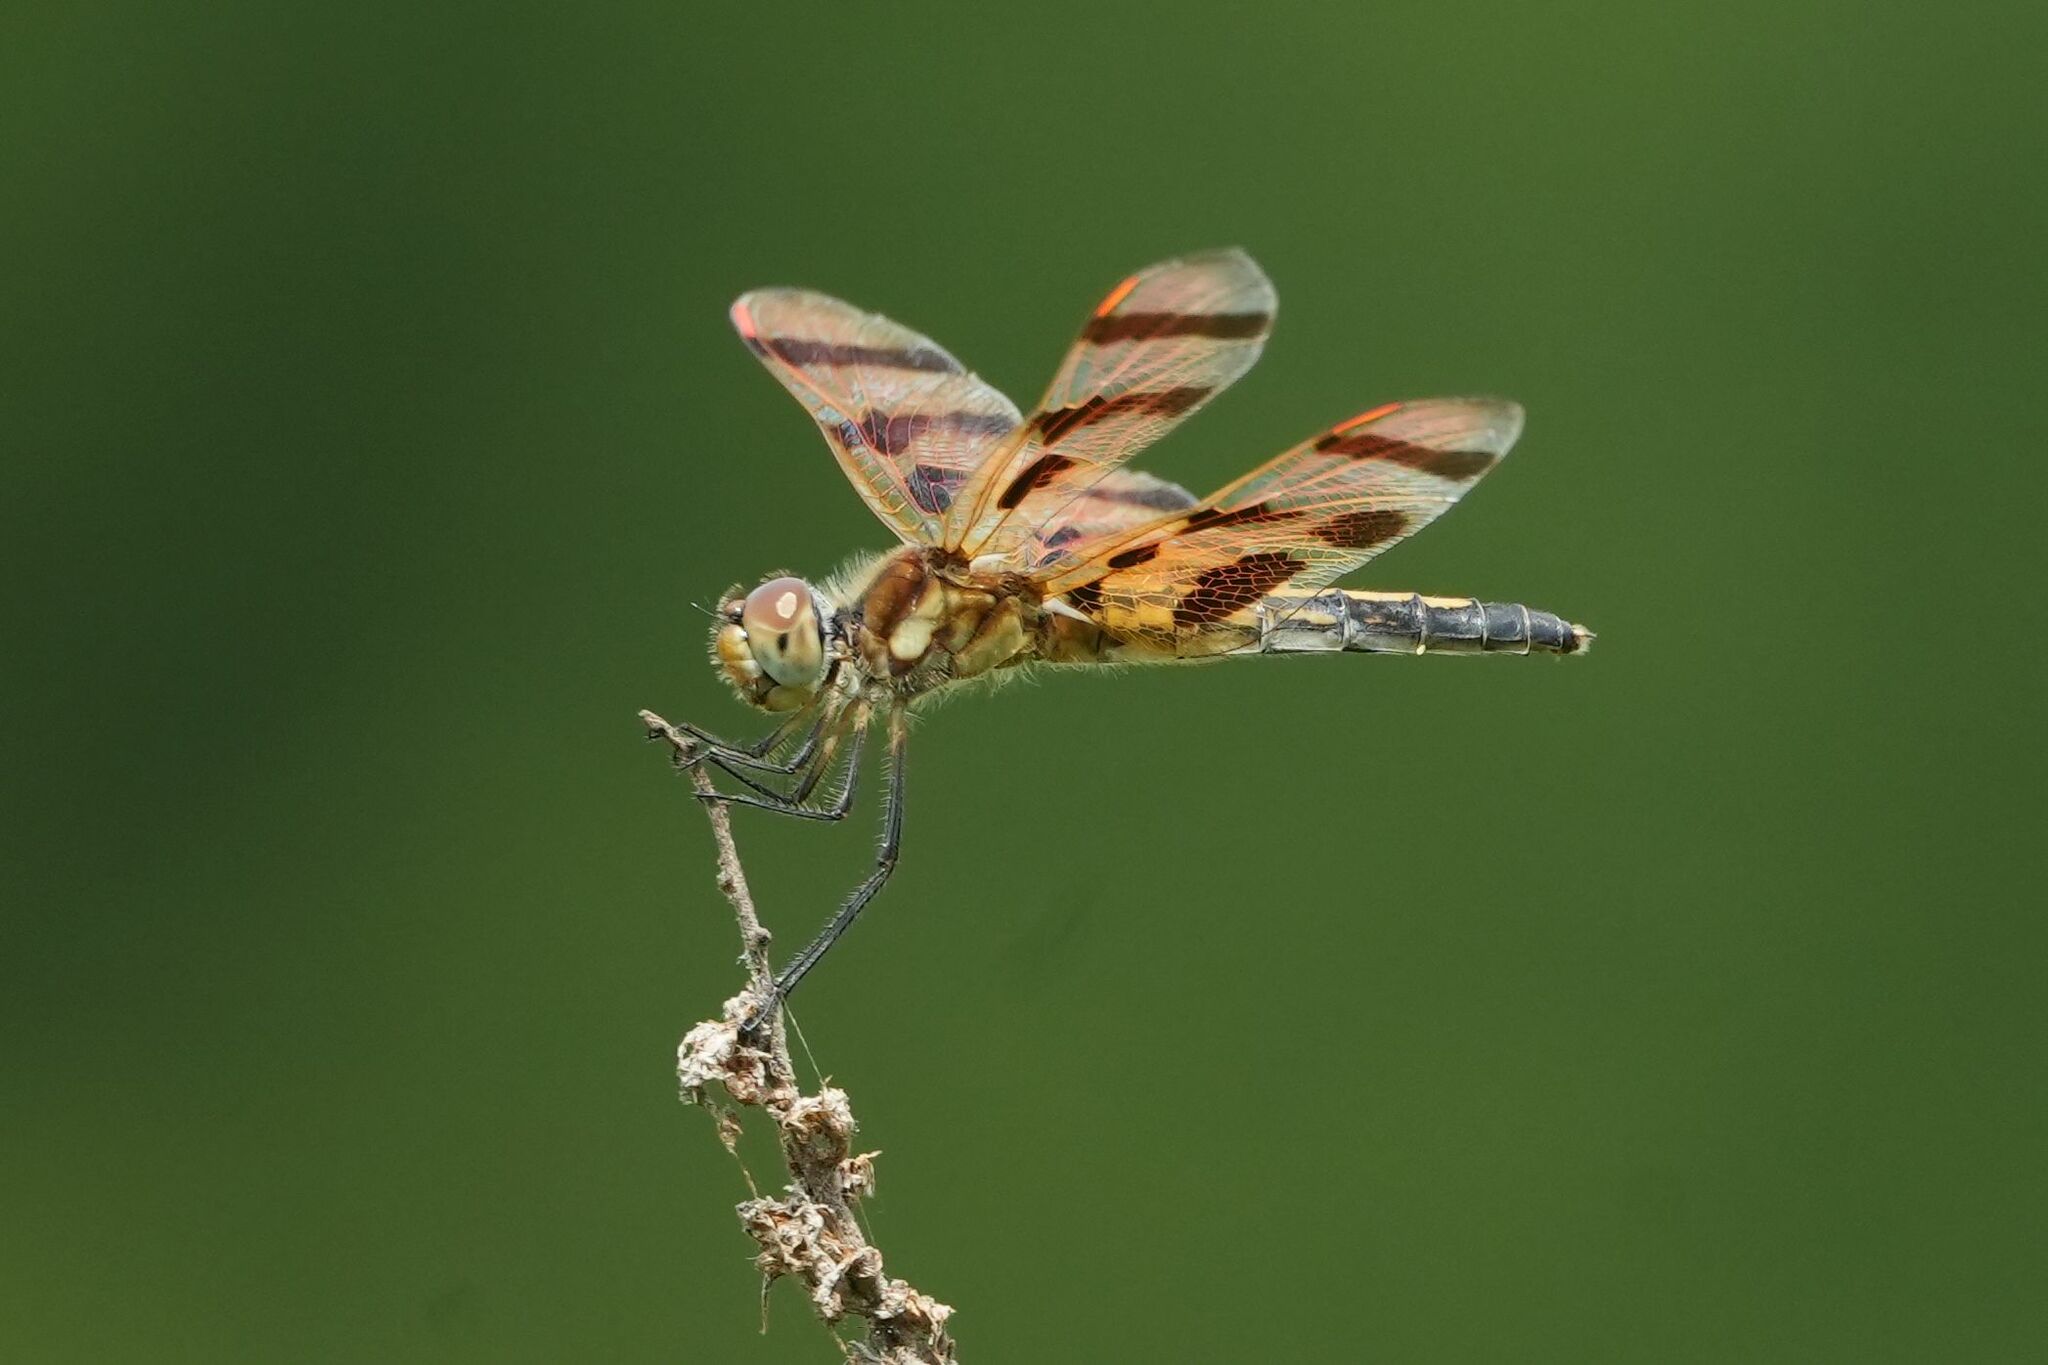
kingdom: Animalia
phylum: Arthropoda
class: Insecta
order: Odonata
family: Libellulidae
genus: Celithemis
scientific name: Celithemis eponina
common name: Halloween pennant
